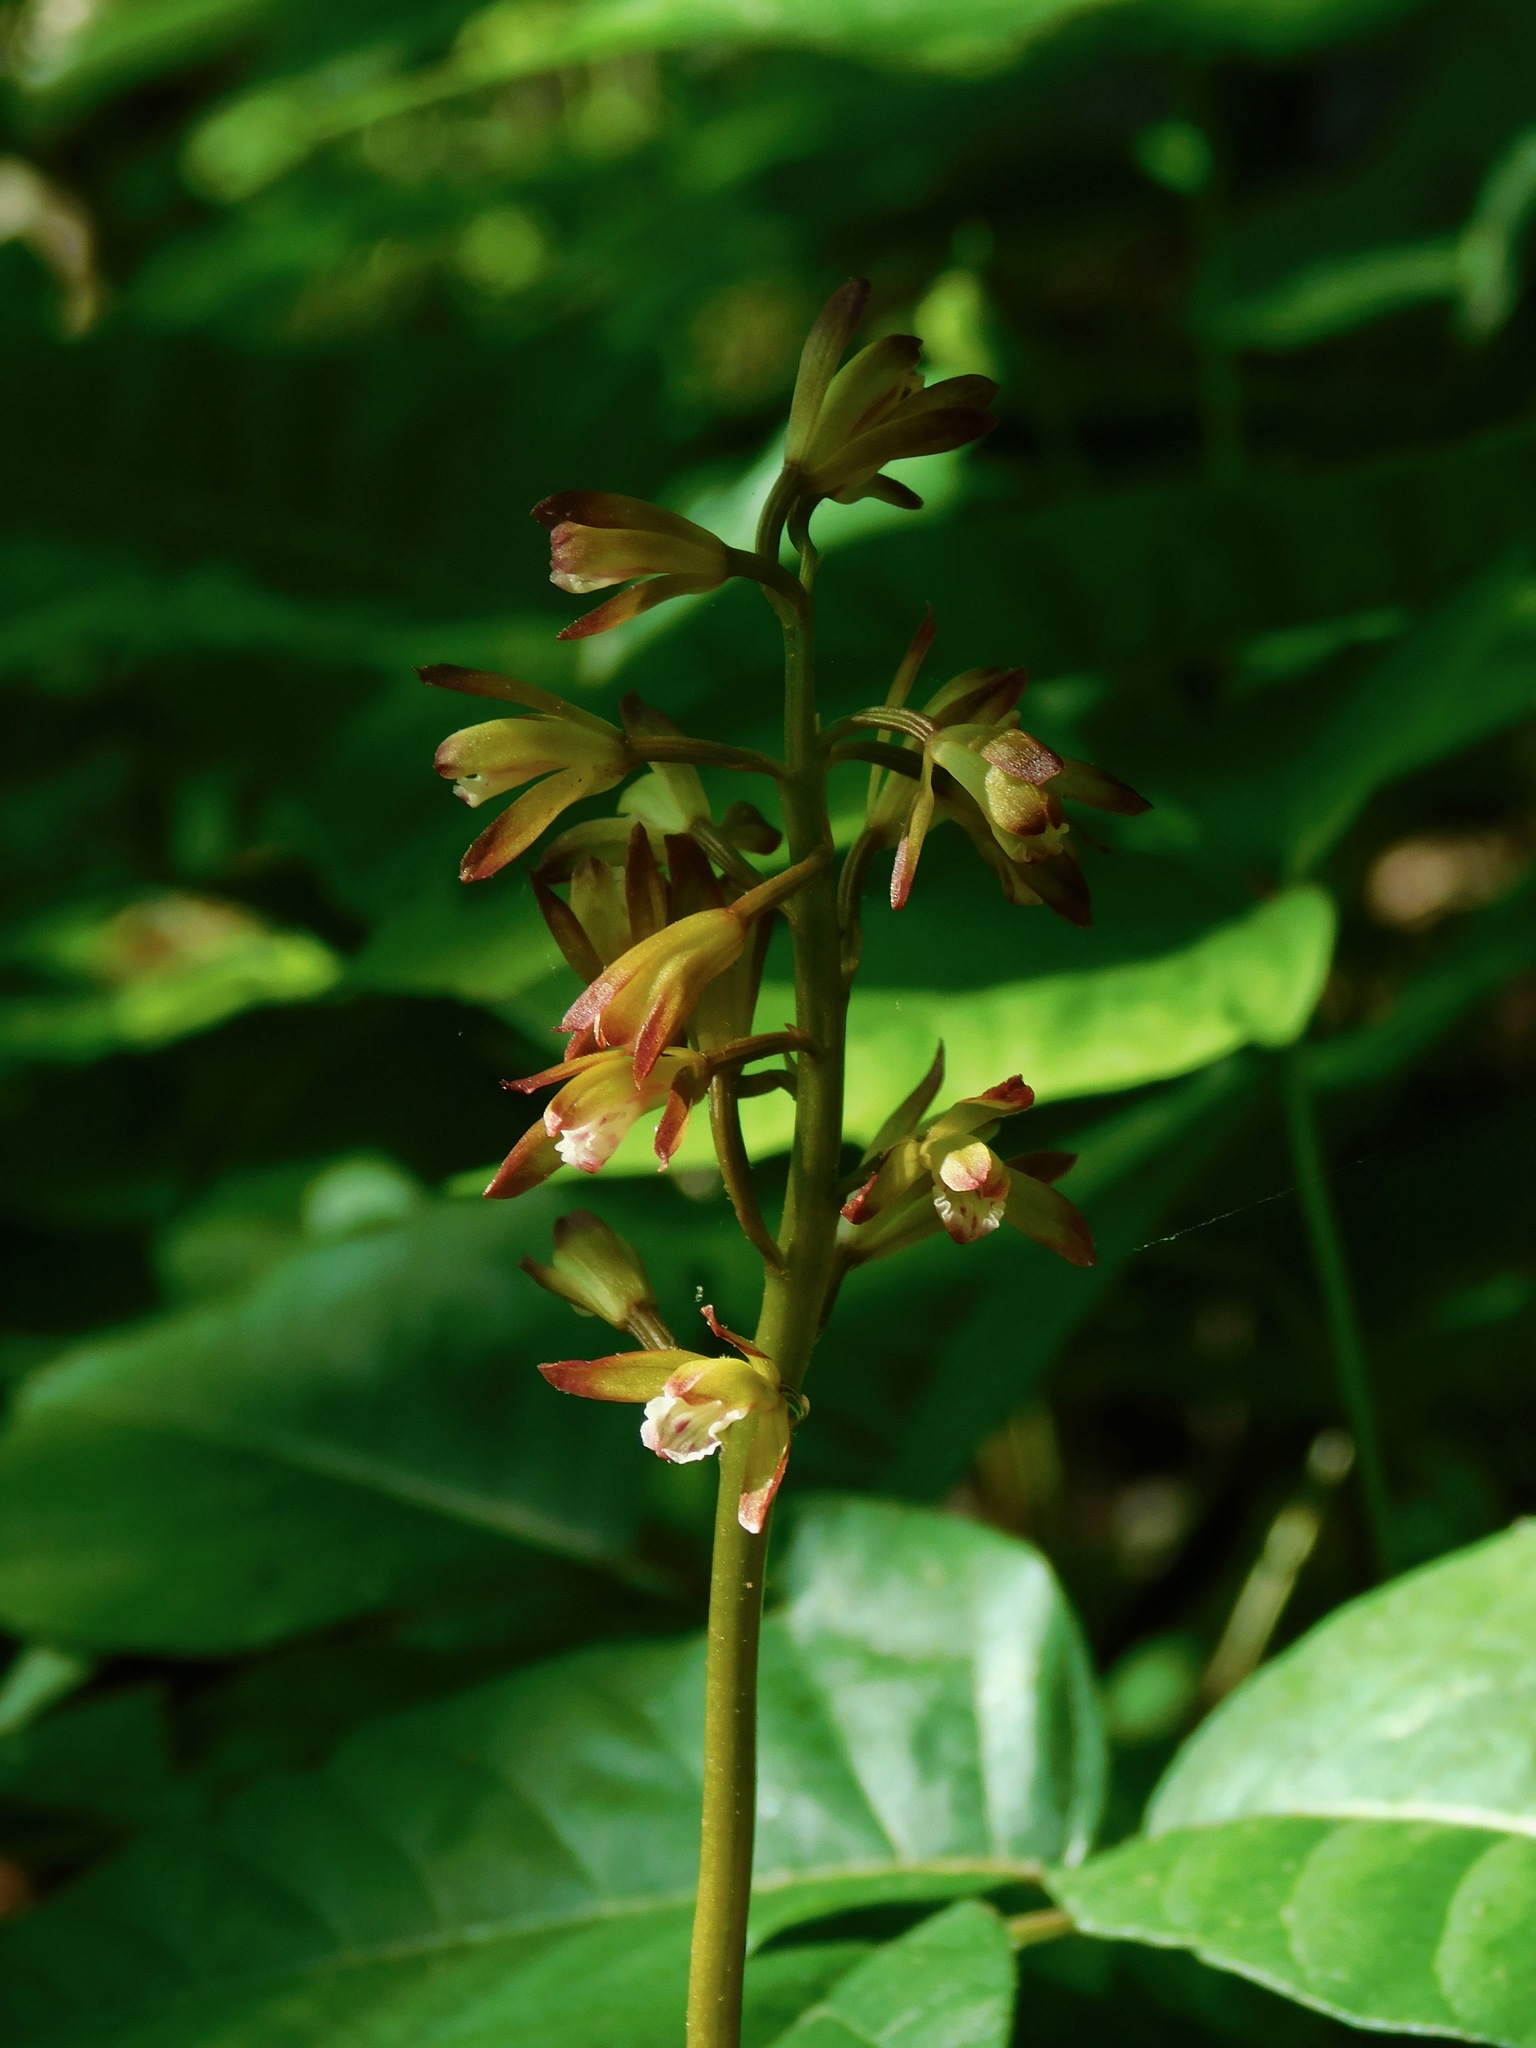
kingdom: Plantae
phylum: Tracheophyta
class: Liliopsida
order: Asparagales
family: Orchidaceae
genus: Aplectrum
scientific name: Aplectrum hyemale
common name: Adam-and-eve
